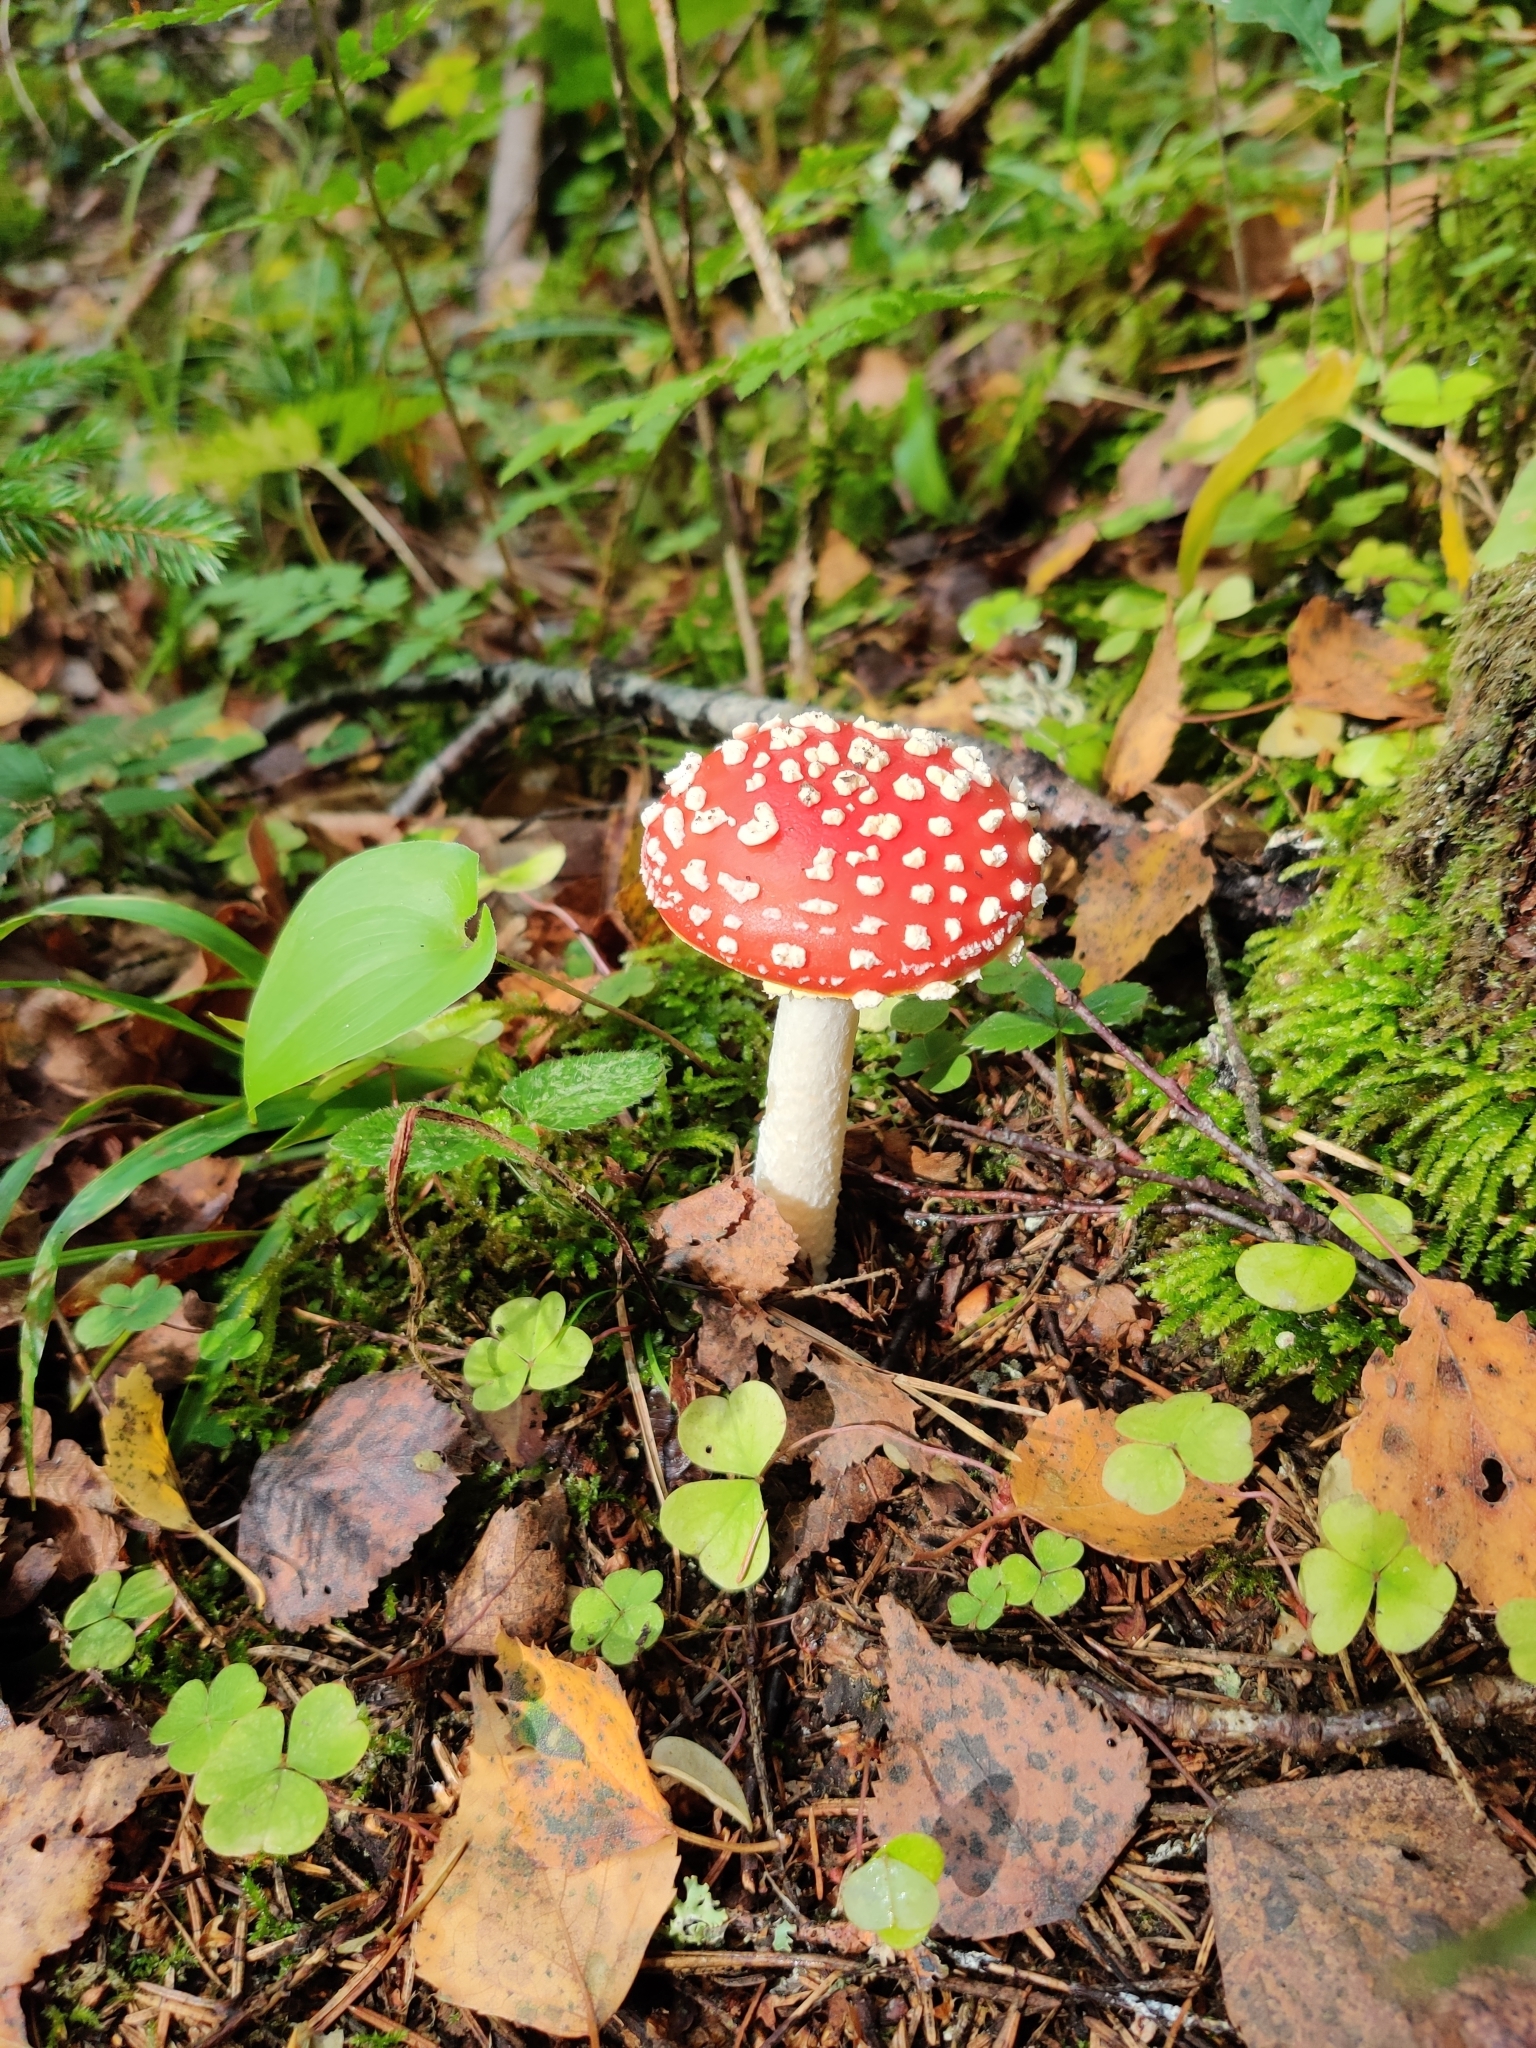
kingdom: Fungi
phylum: Basidiomycota
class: Agaricomycetes
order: Agaricales
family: Amanitaceae
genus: Amanita
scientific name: Amanita muscaria
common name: Fly agaric
